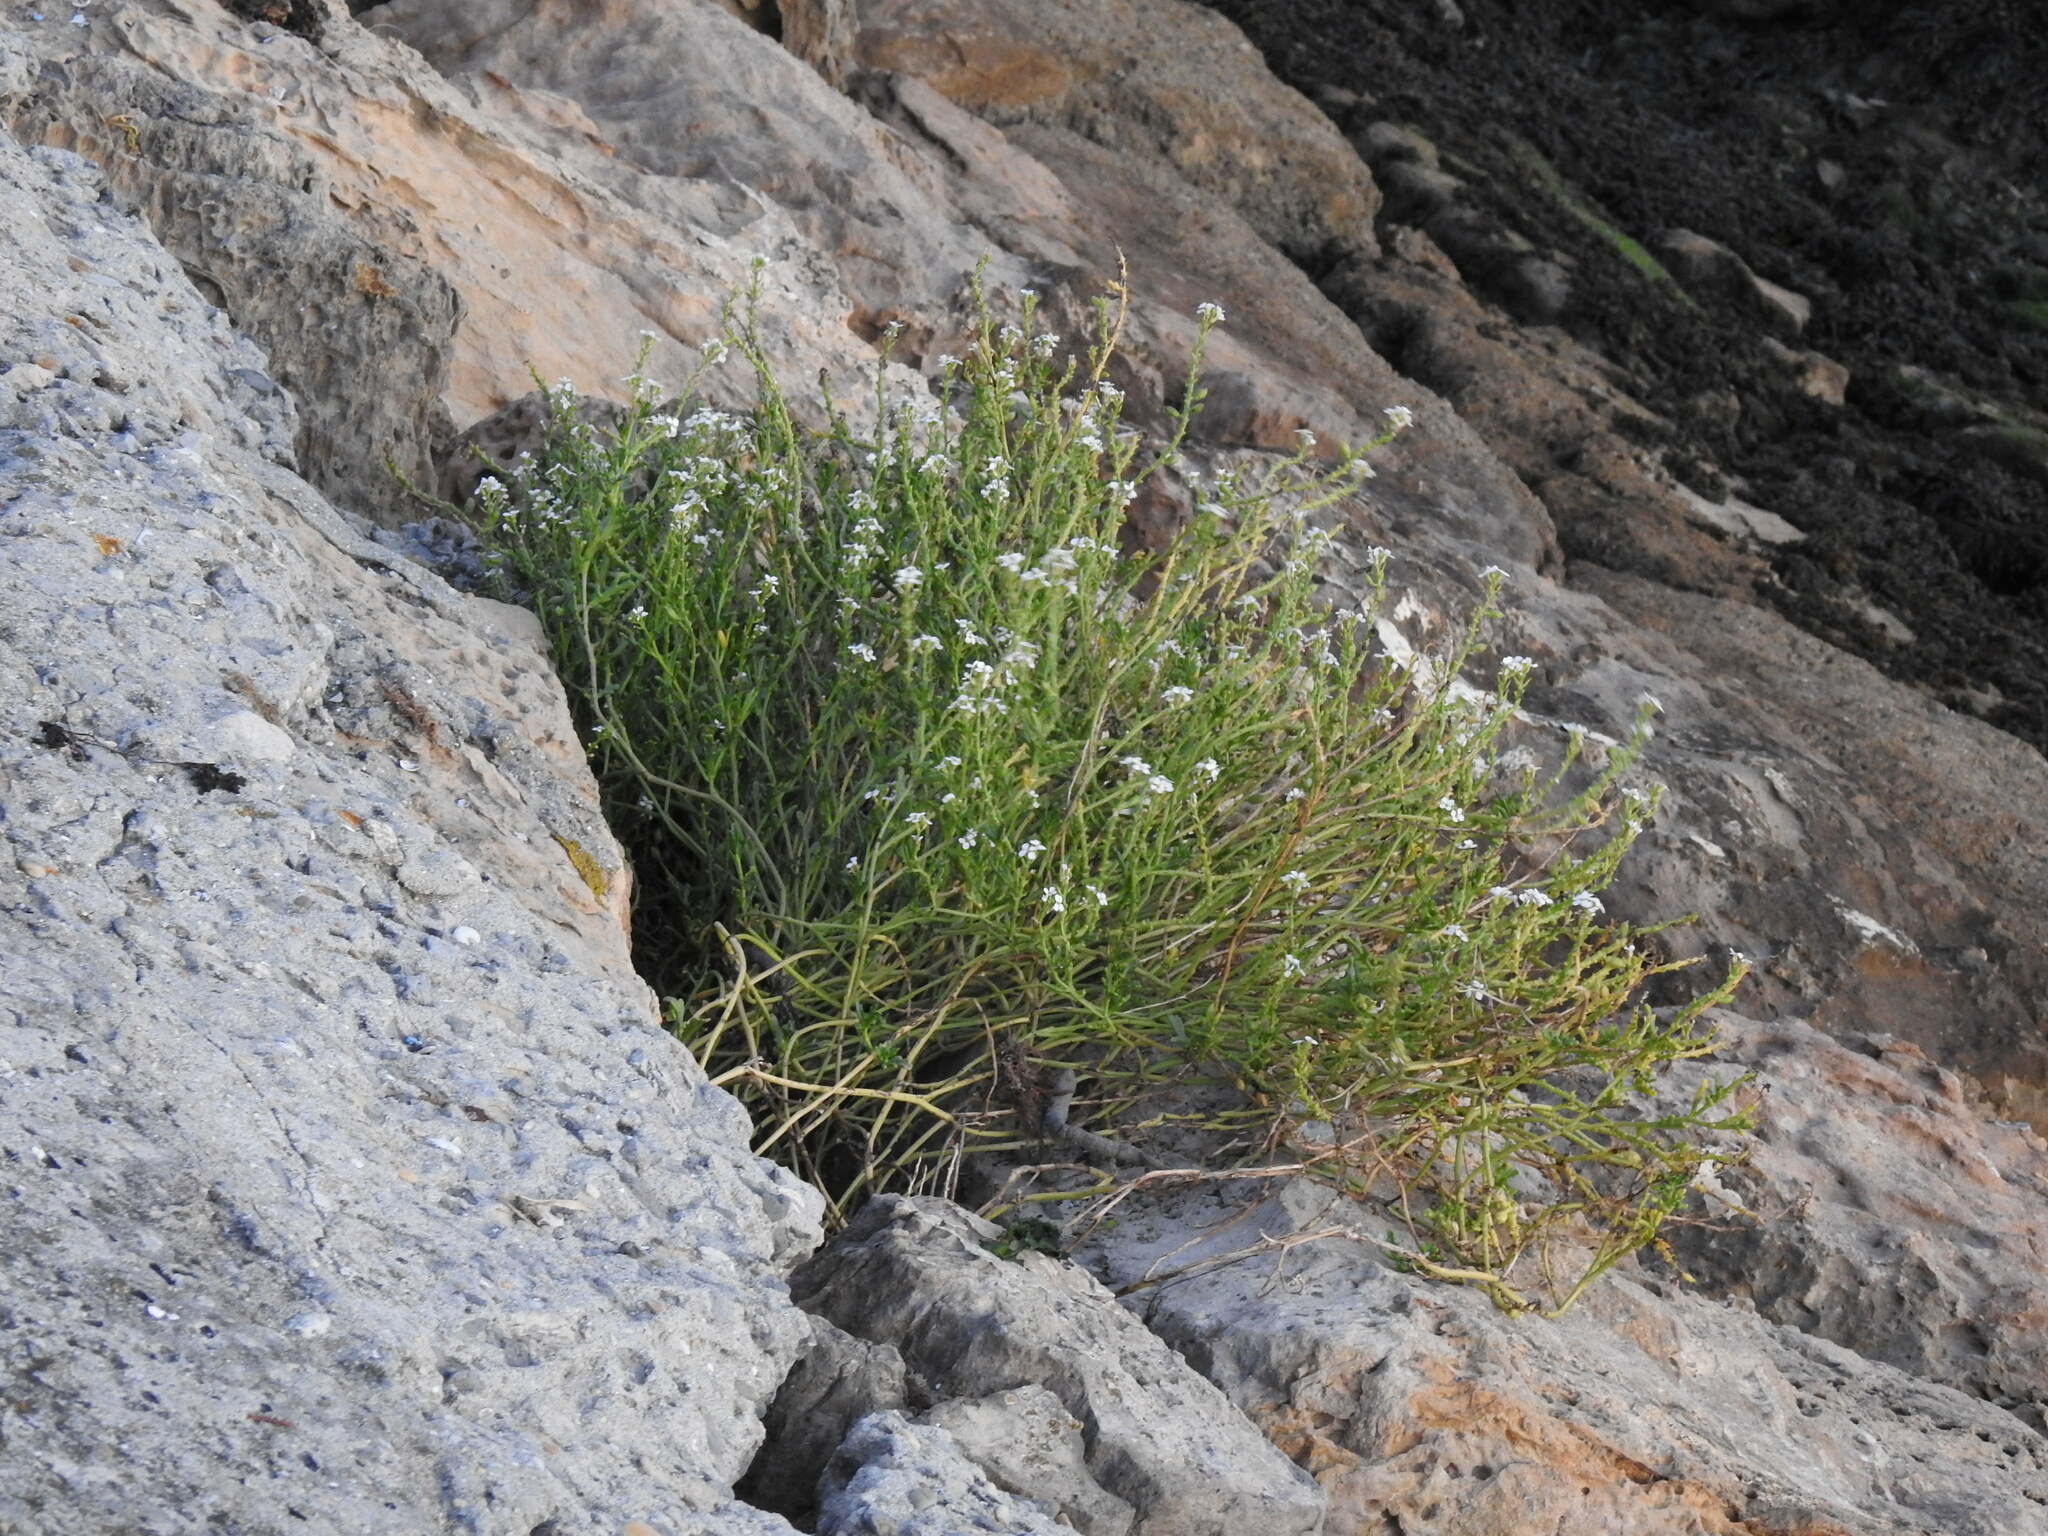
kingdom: Plantae
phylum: Tracheophyta
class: Magnoliopsida
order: Brassicales
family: Brassicaceae
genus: Cakile
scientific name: Cakile maritima
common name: Sea rocket
